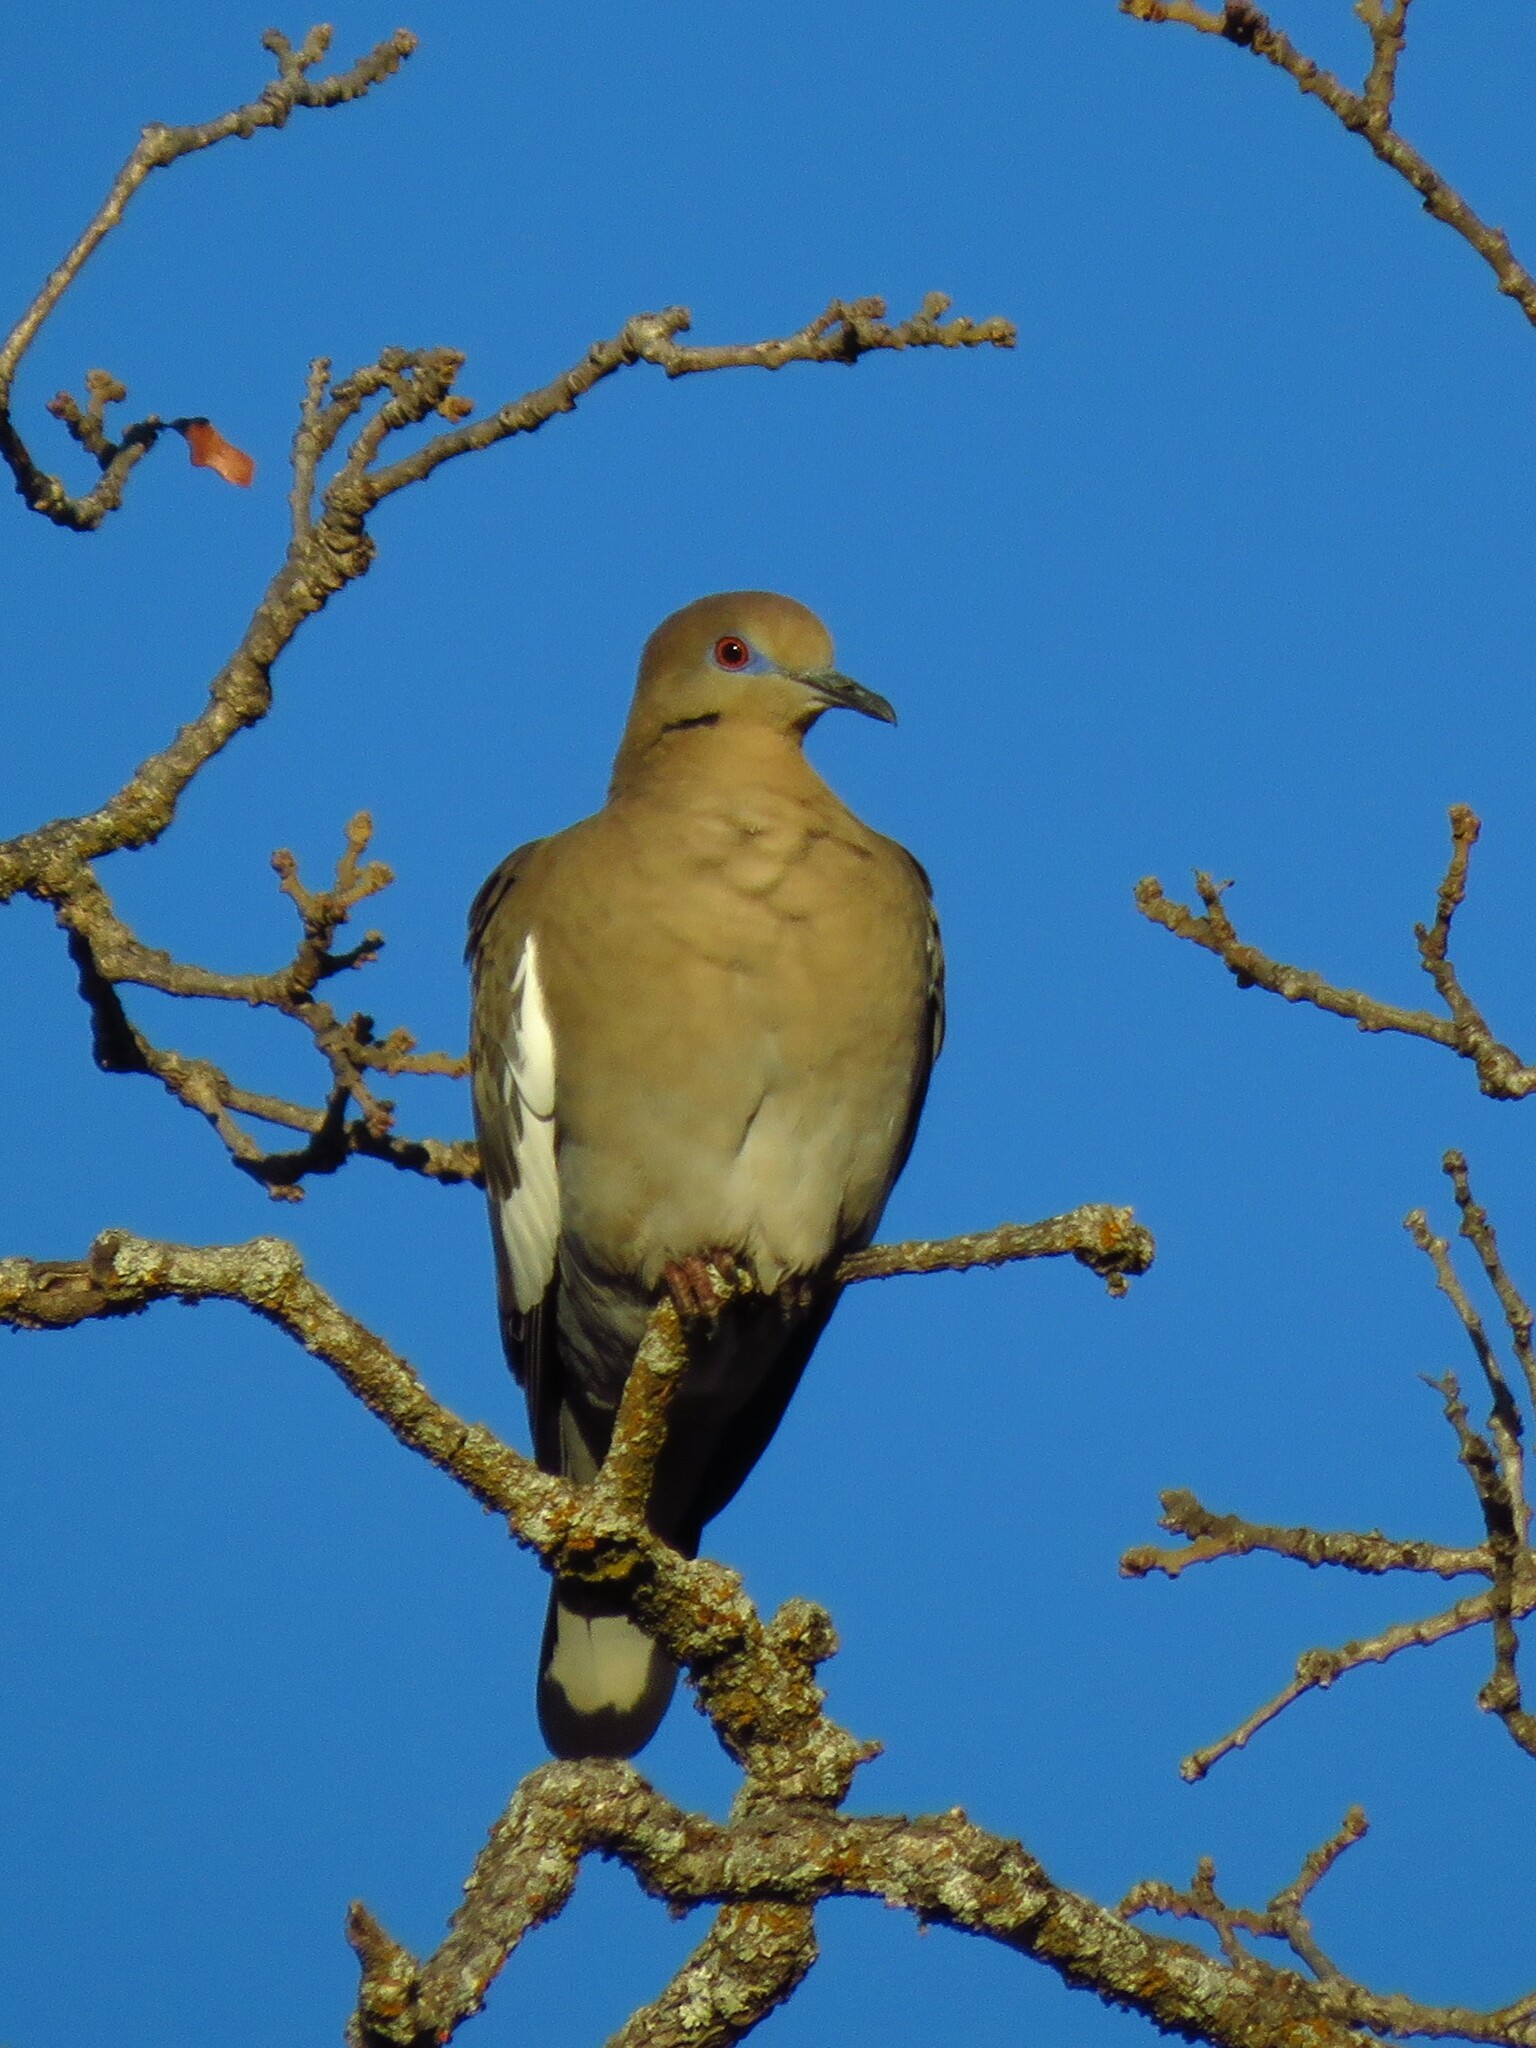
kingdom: Animalia
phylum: Chordata
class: Aves
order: Columbiformes
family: Columbidae
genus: Zenaida
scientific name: Zenaida asiatica
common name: White-winged dove
